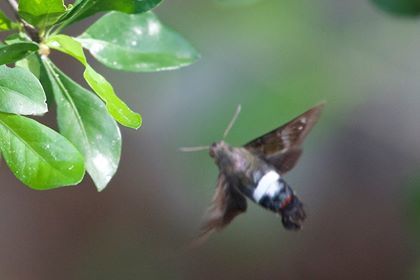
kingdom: Animalia
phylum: Arthropoda
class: Insecta
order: Lepidoptera
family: Sphingidae
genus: Aellopos
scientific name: Aellopos tantalus
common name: Tantalus sphinx
